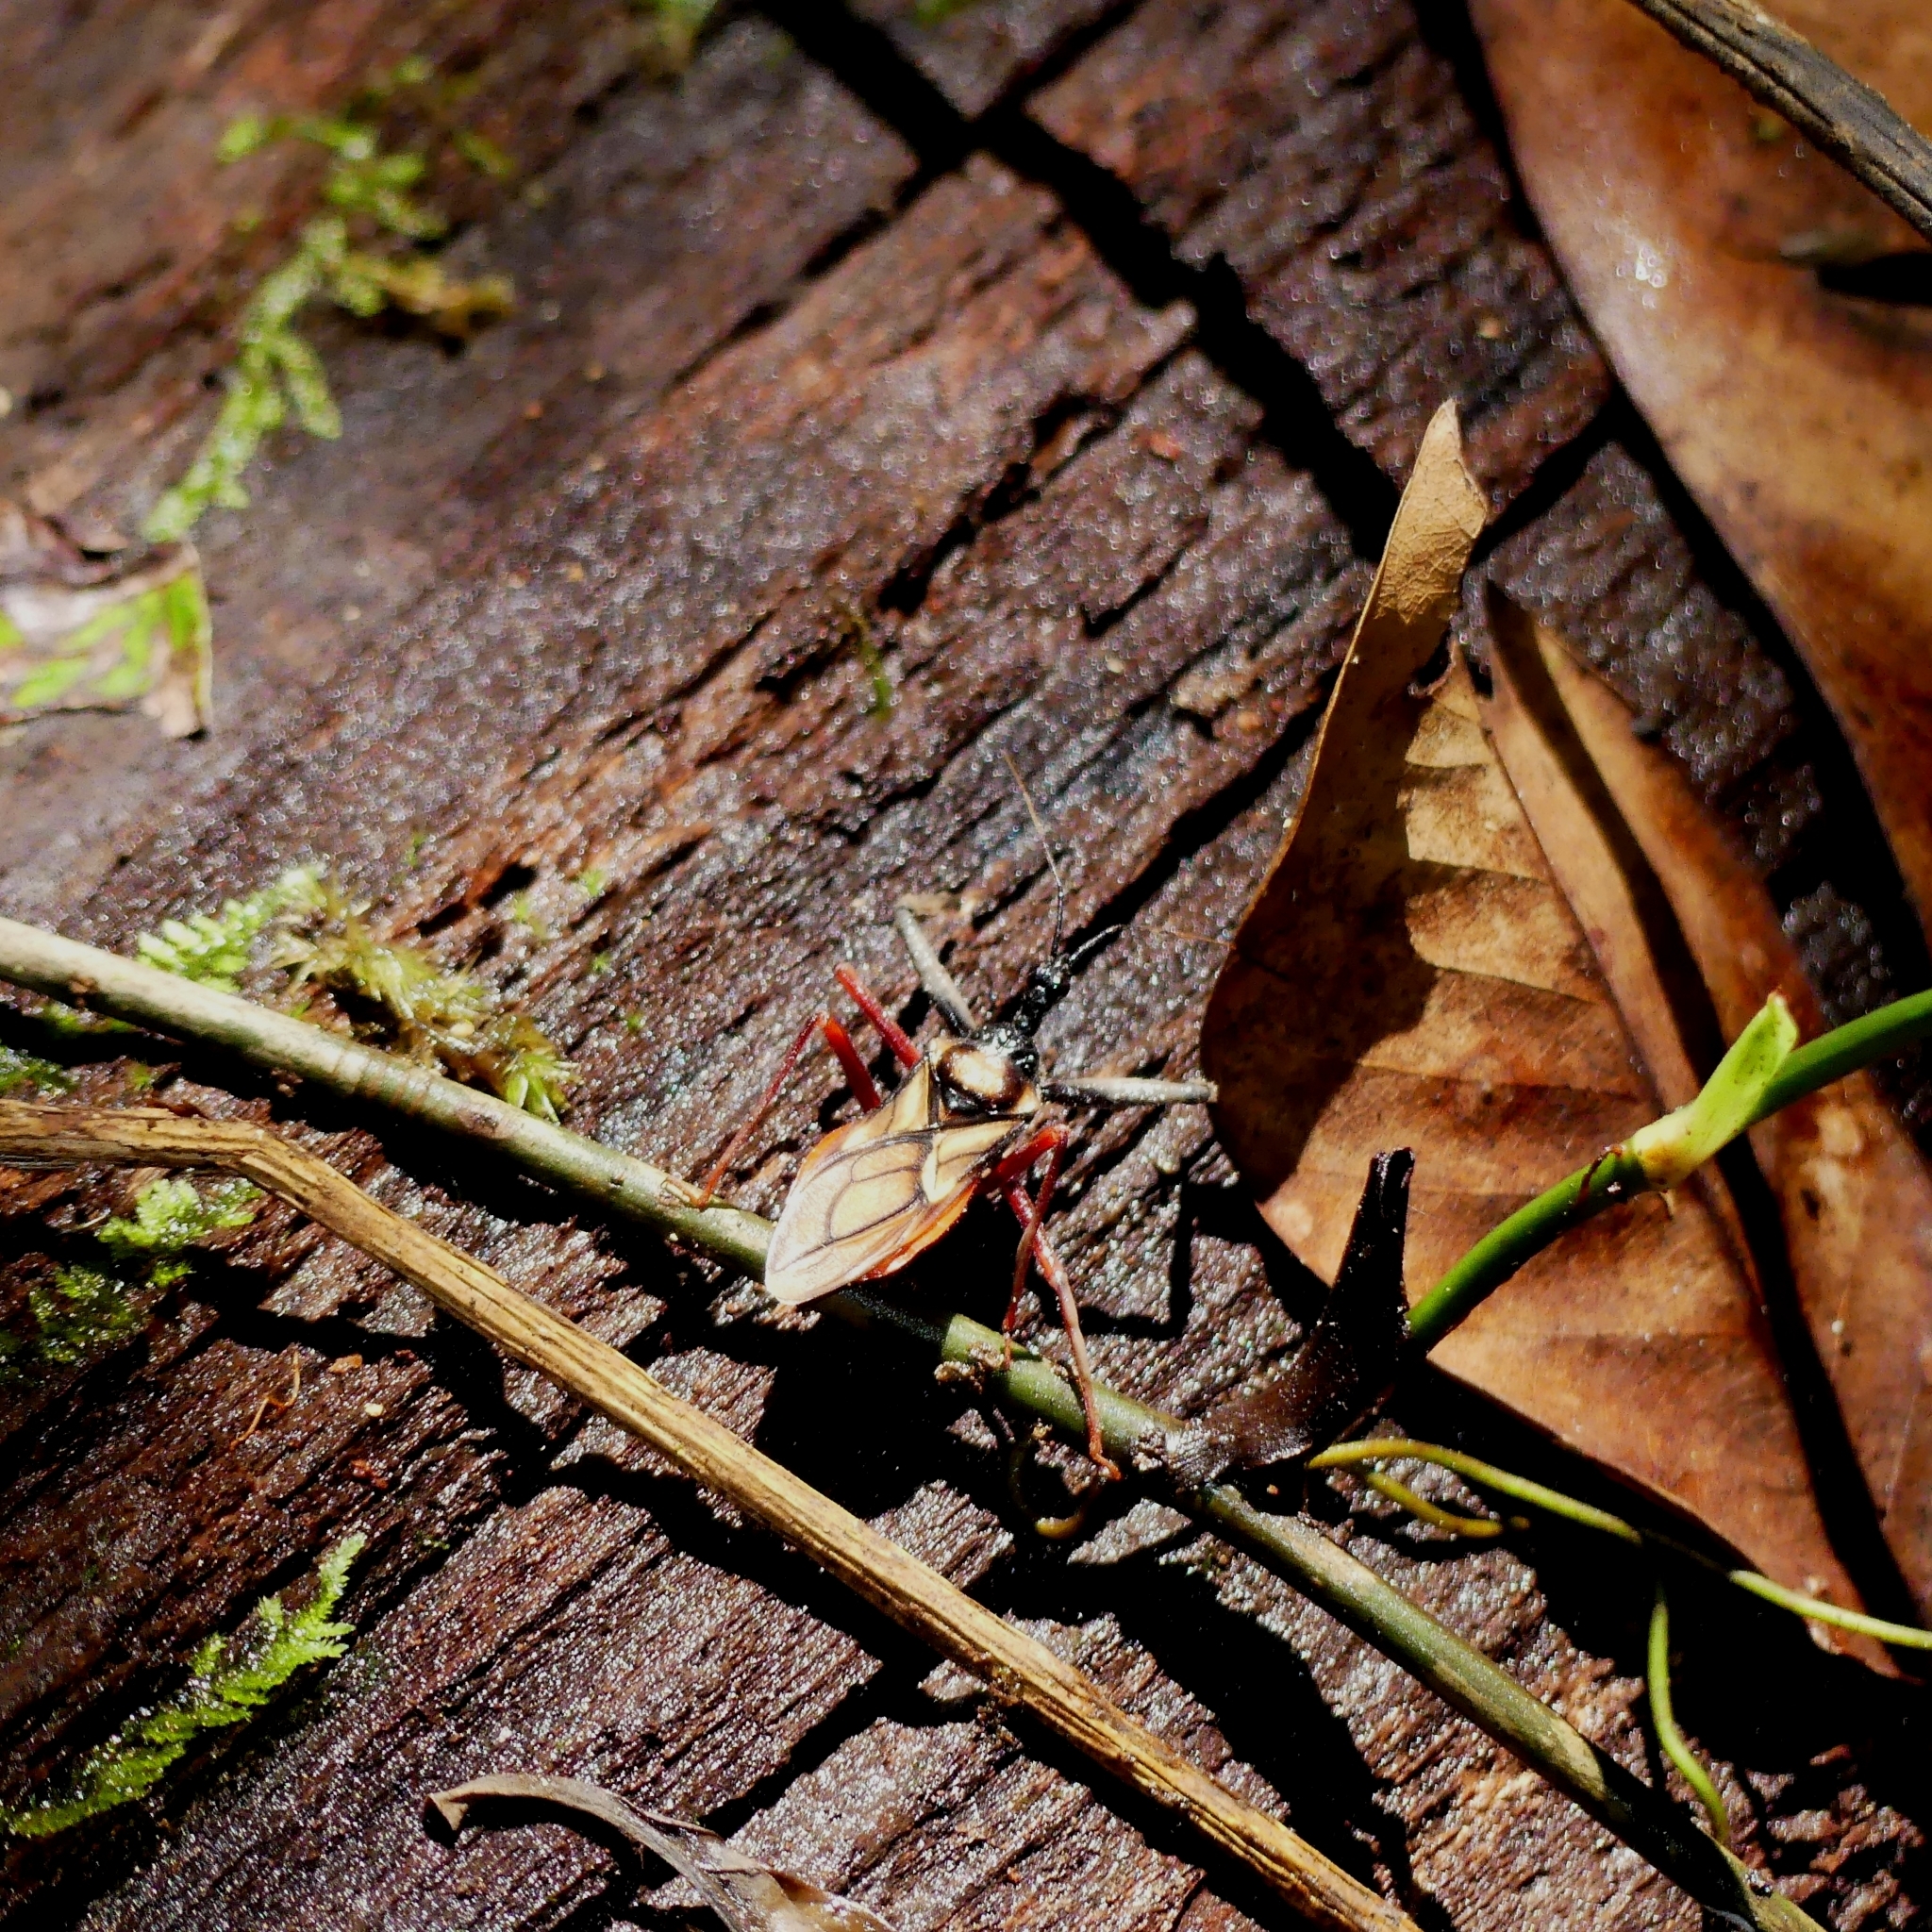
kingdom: Animalia
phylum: Arthropoda
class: Insecta
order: Hemiptera
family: Reduviidae
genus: Manicocoris
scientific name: Manicocoris rufipes
